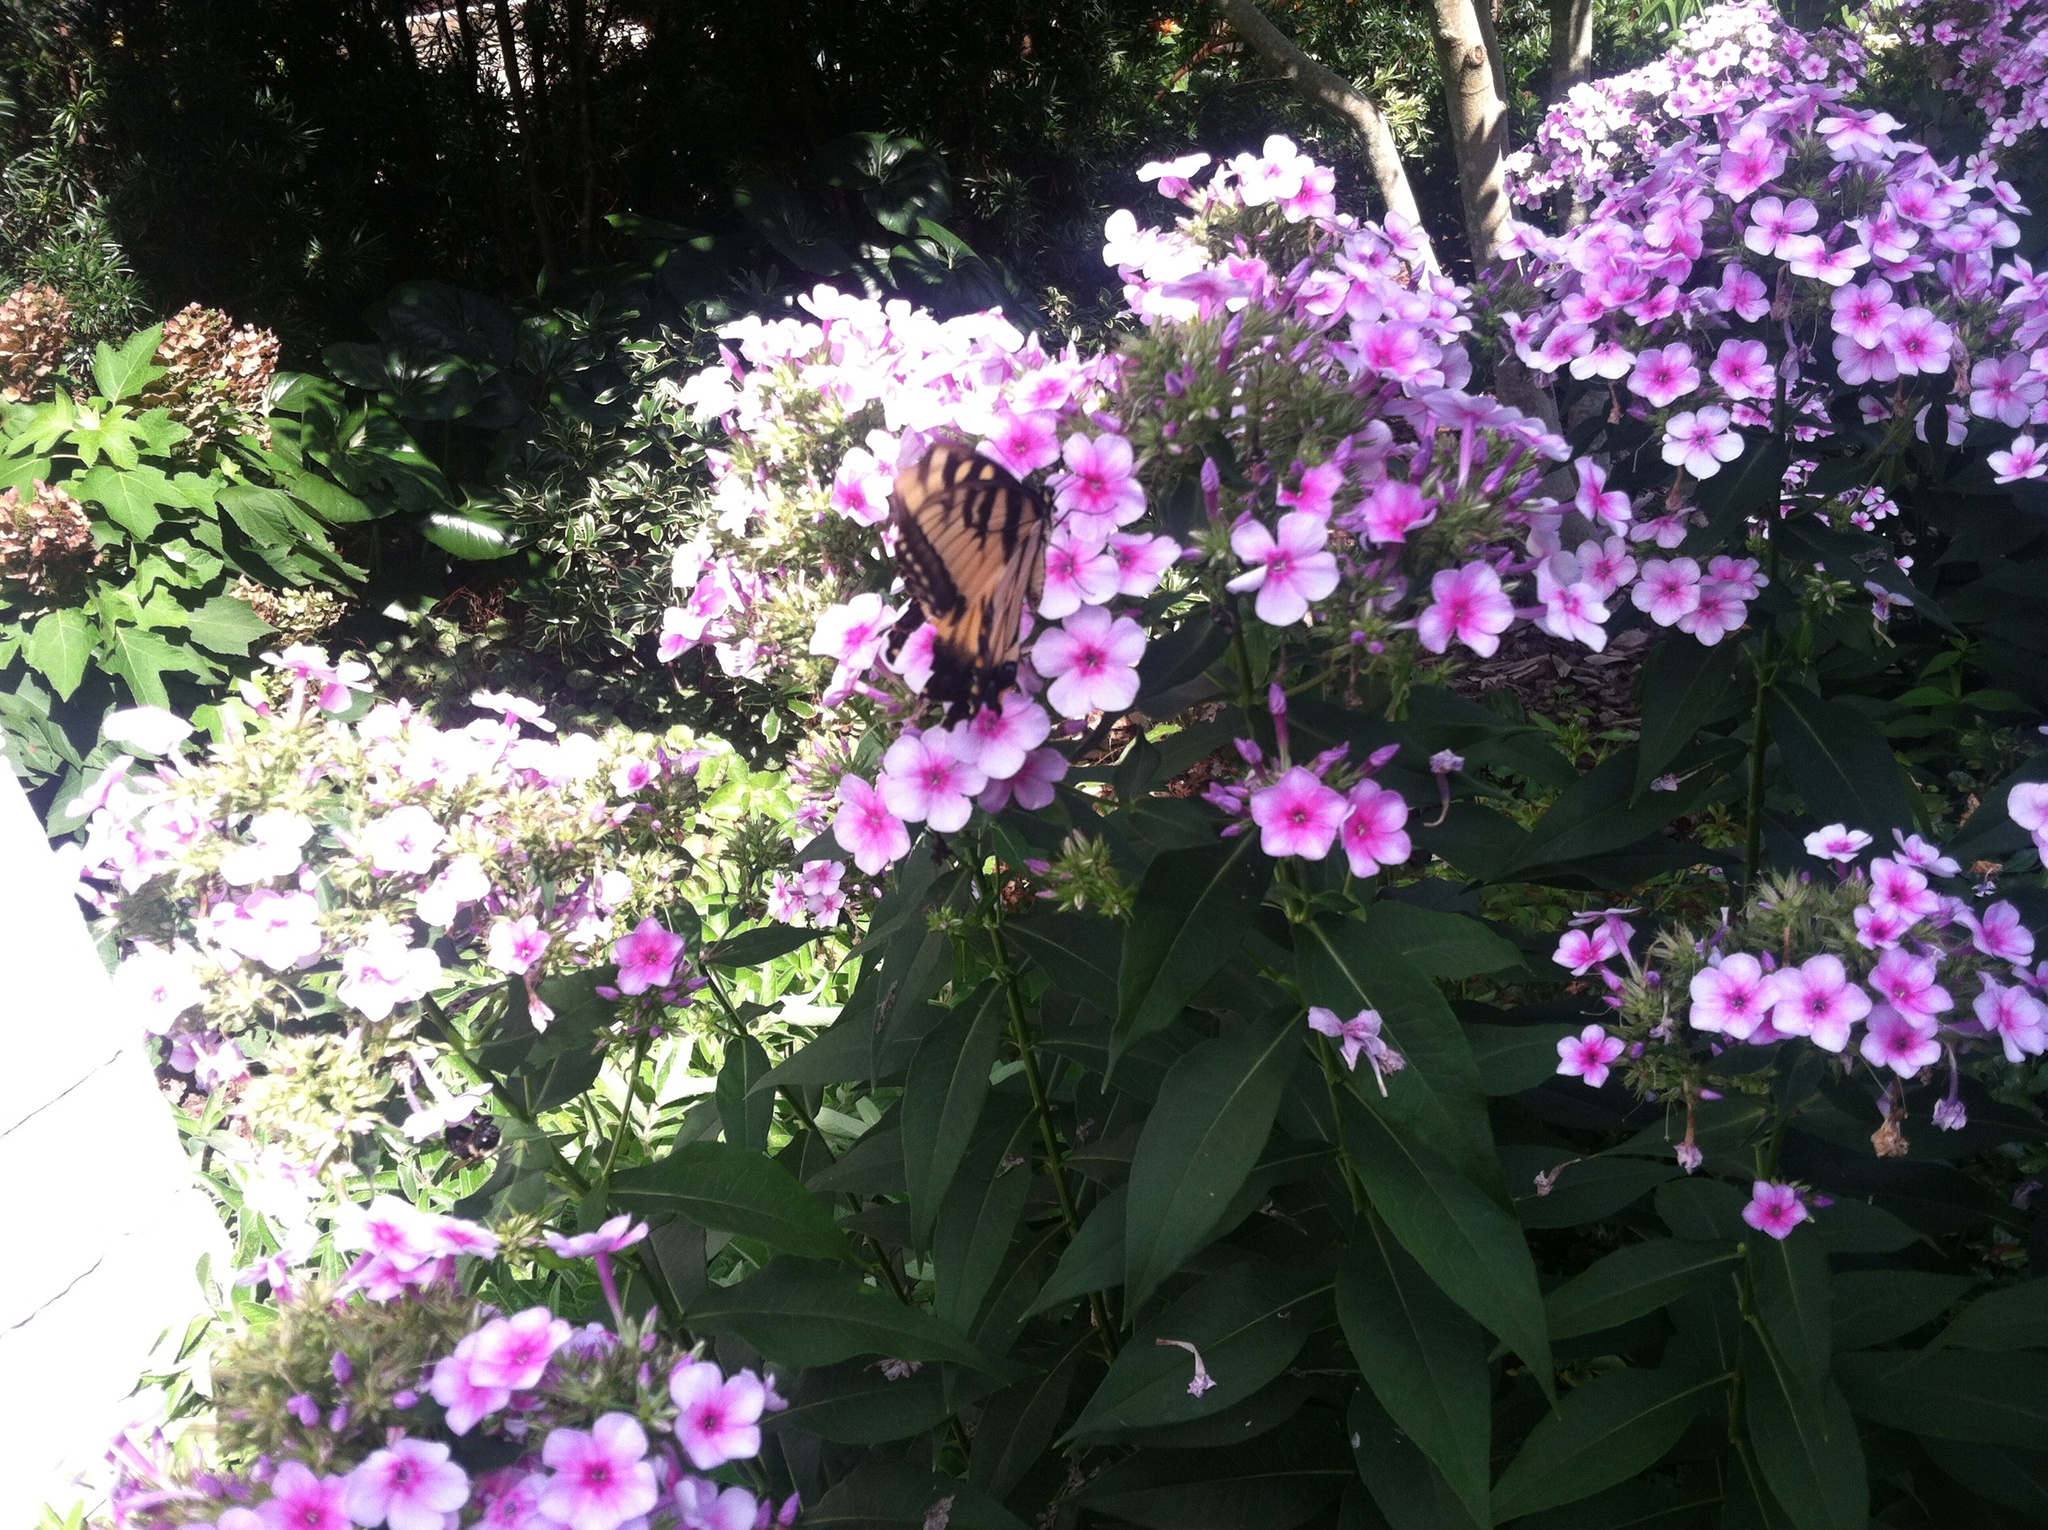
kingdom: Animalia
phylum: Arthropoda
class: Insecta
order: Lepidoptera
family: Papilionidae
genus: Papilio
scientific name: Papilio glaucus
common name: Tiger swallowtail
